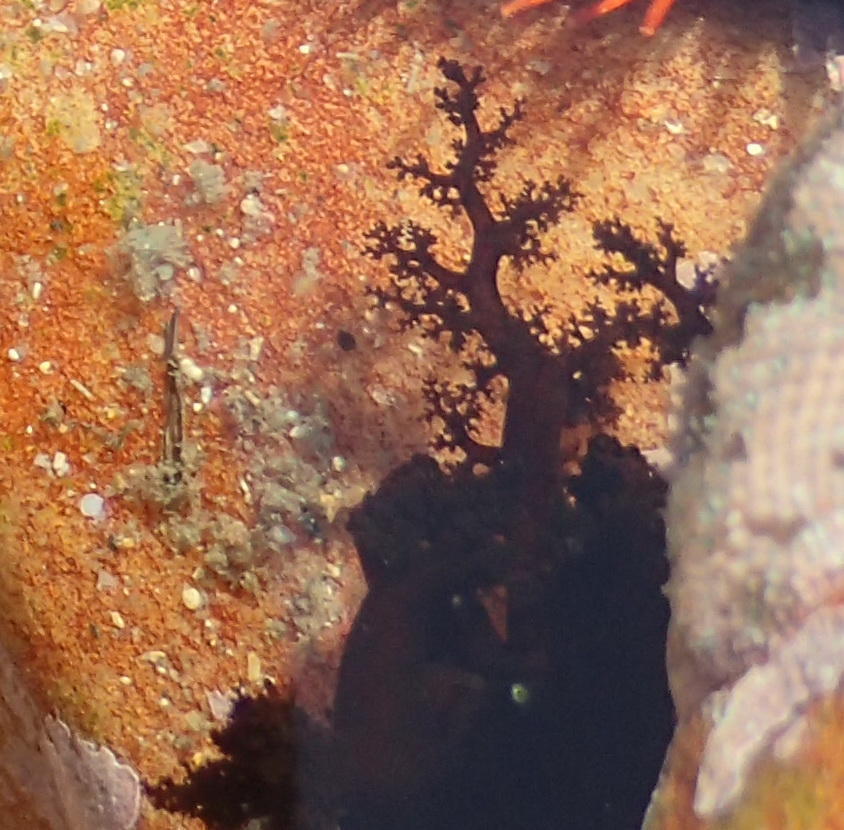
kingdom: Animalia
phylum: Echinodermata
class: Holothuroidea
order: Dendrochirotida
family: Cucumariidae
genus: Roweia
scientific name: Roweia frauenfeldi
